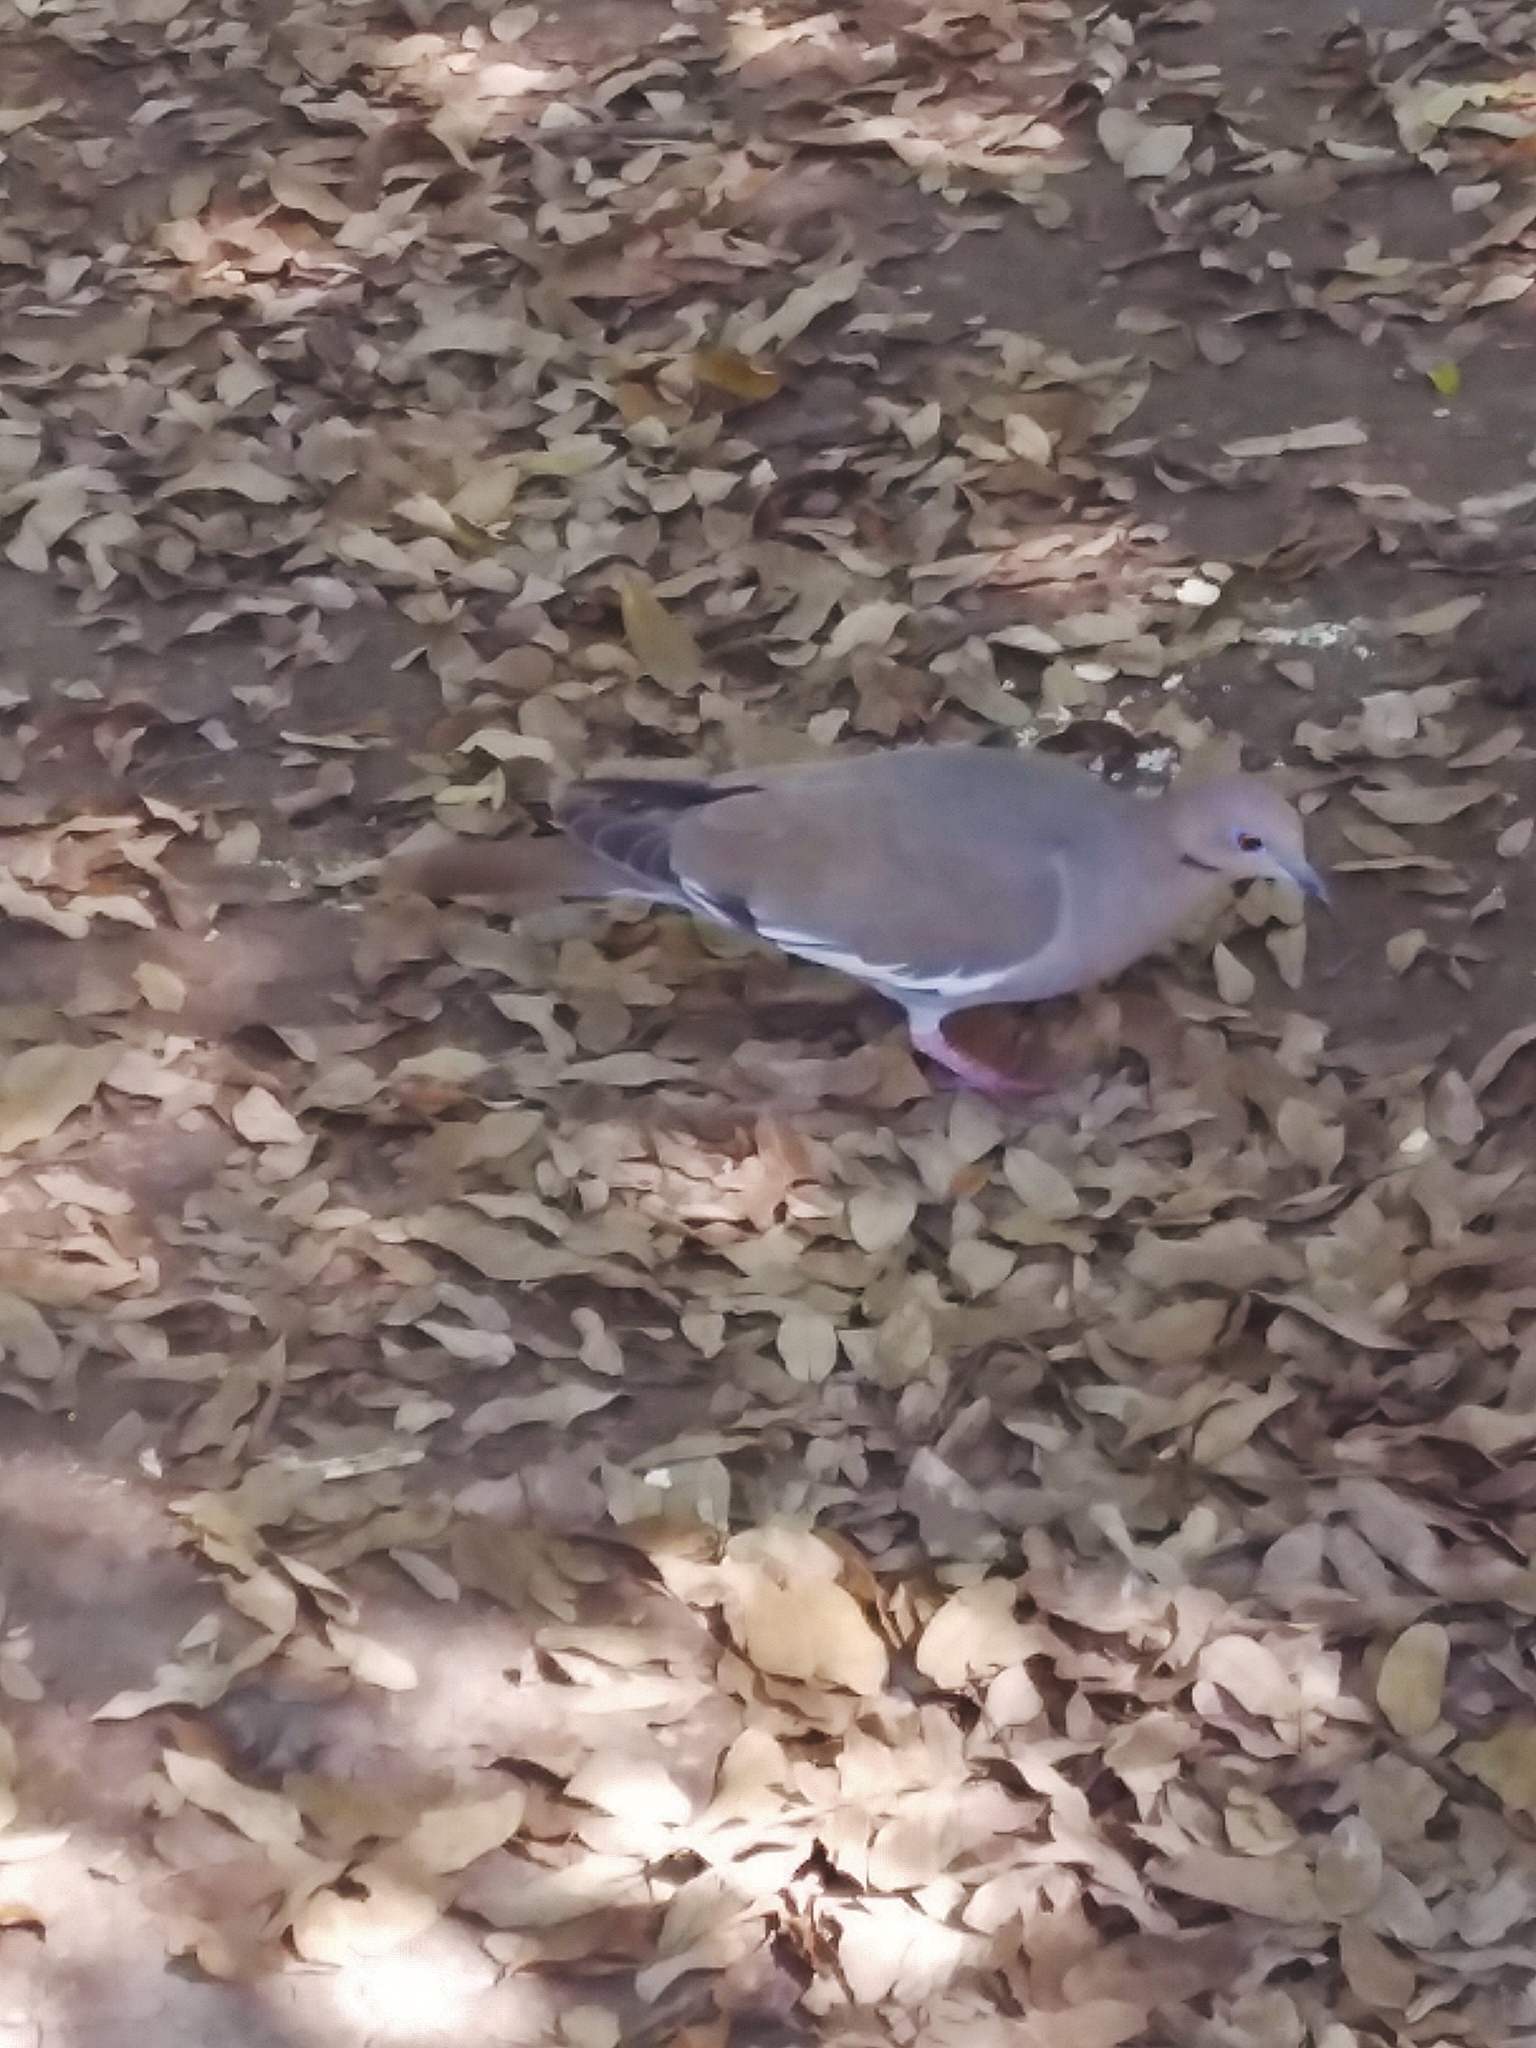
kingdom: Animalia
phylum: Chordata
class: Aves
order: Columbiformes
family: Columbidae
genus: Zenaida
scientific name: Zenaida asiatica
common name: White-winged dove
